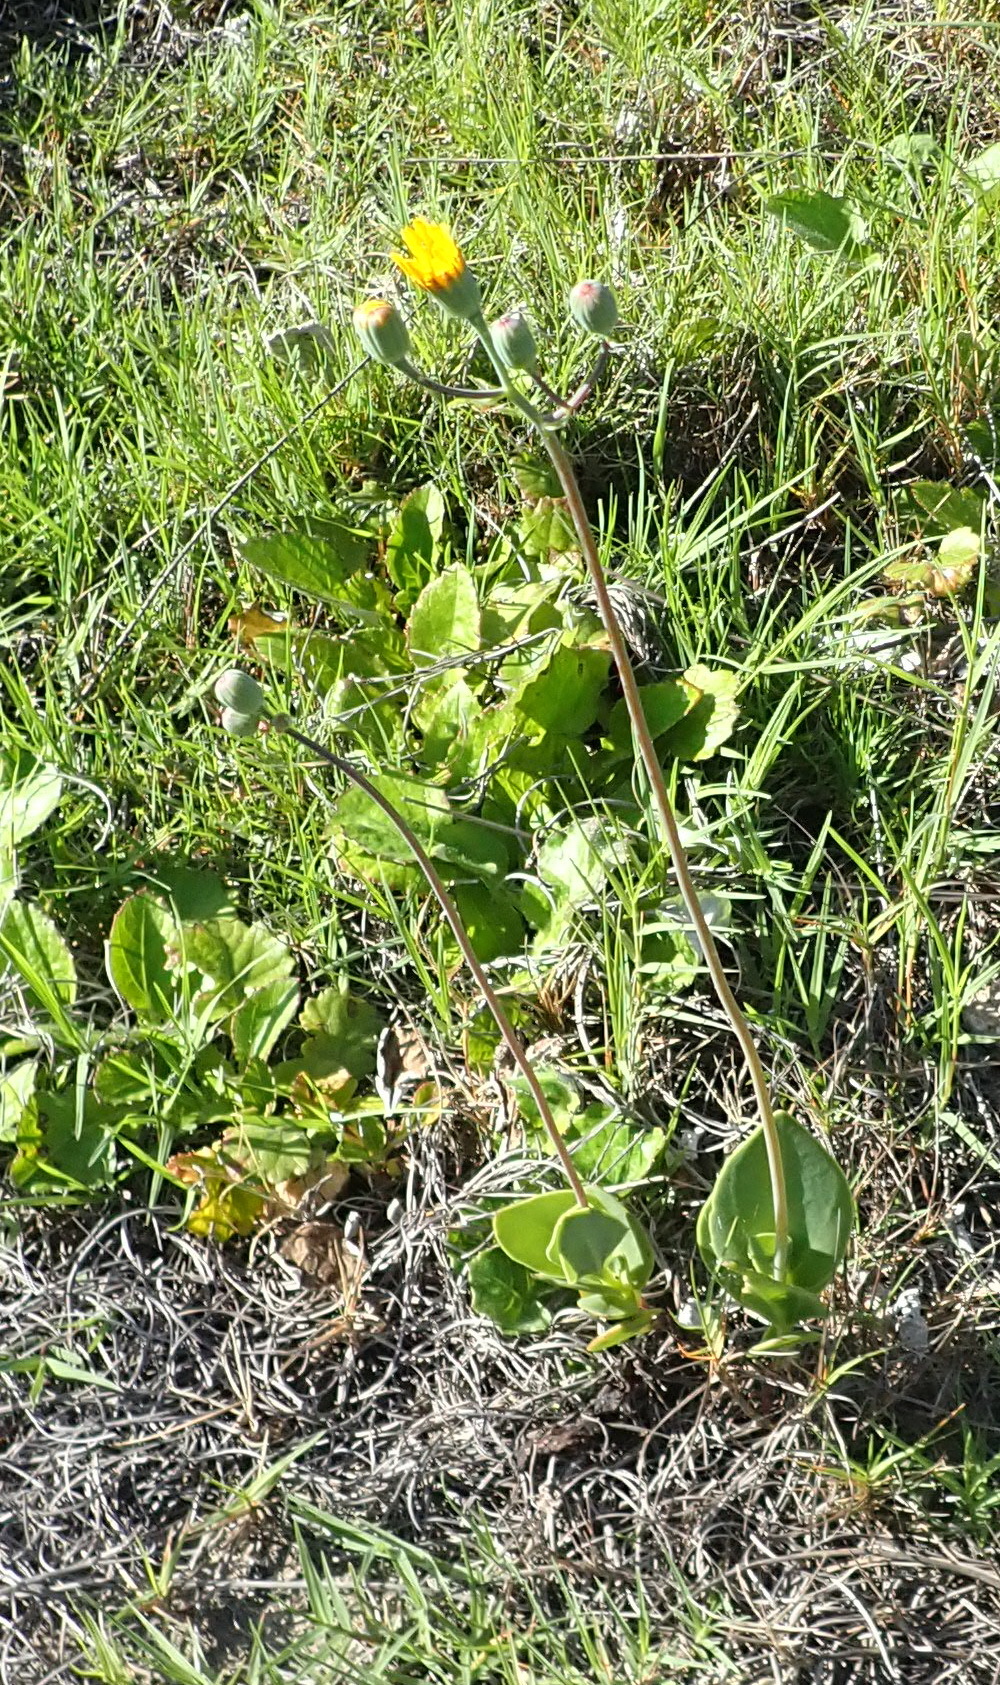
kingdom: Plantae
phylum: Tracheophyta
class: Magnoliopsida
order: Asterales
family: Asteraceae
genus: Senecio
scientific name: Senecio ruwenzoriensis
